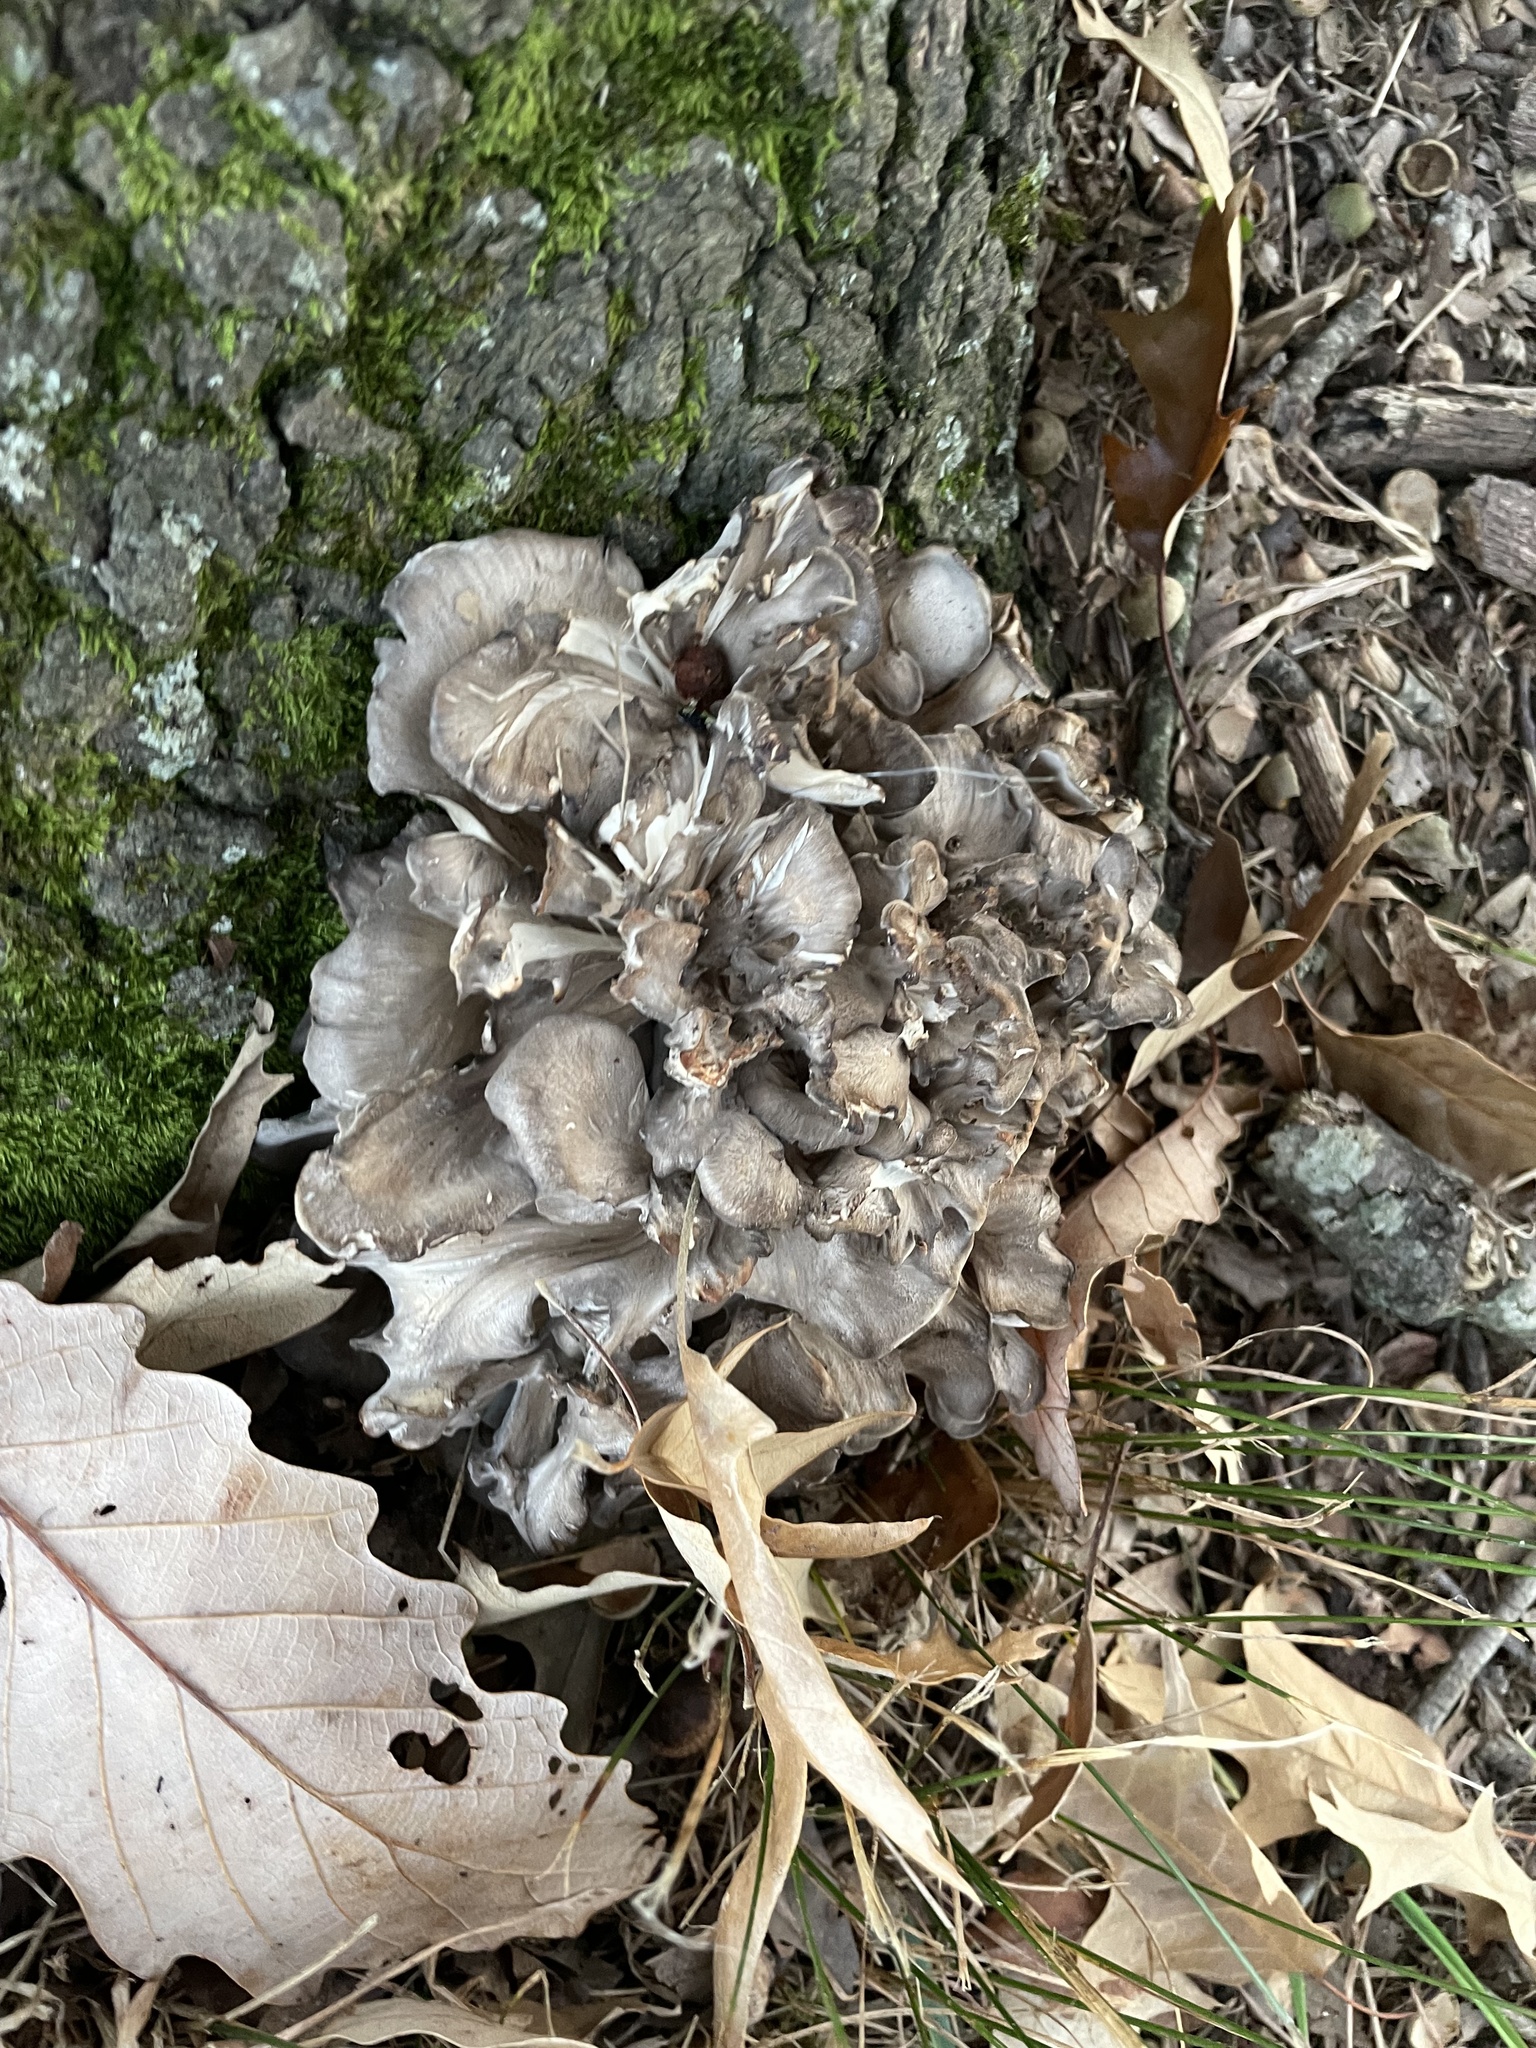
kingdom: Fungi
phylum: Basidiomycota
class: Agaricomycetes
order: Polyporales
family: Grifolaceae
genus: Grifola
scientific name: Grifola frondosa
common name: Hen of the woods
